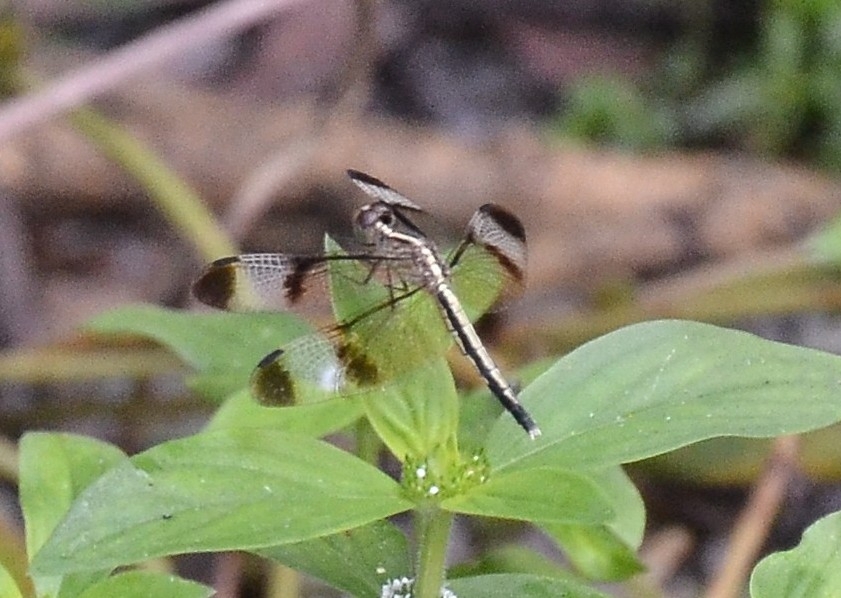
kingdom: Animalia
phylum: Arthropoda
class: Insecta
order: Odonata
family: Libellulidae
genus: Neurothemis
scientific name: Neurothemis tullia
